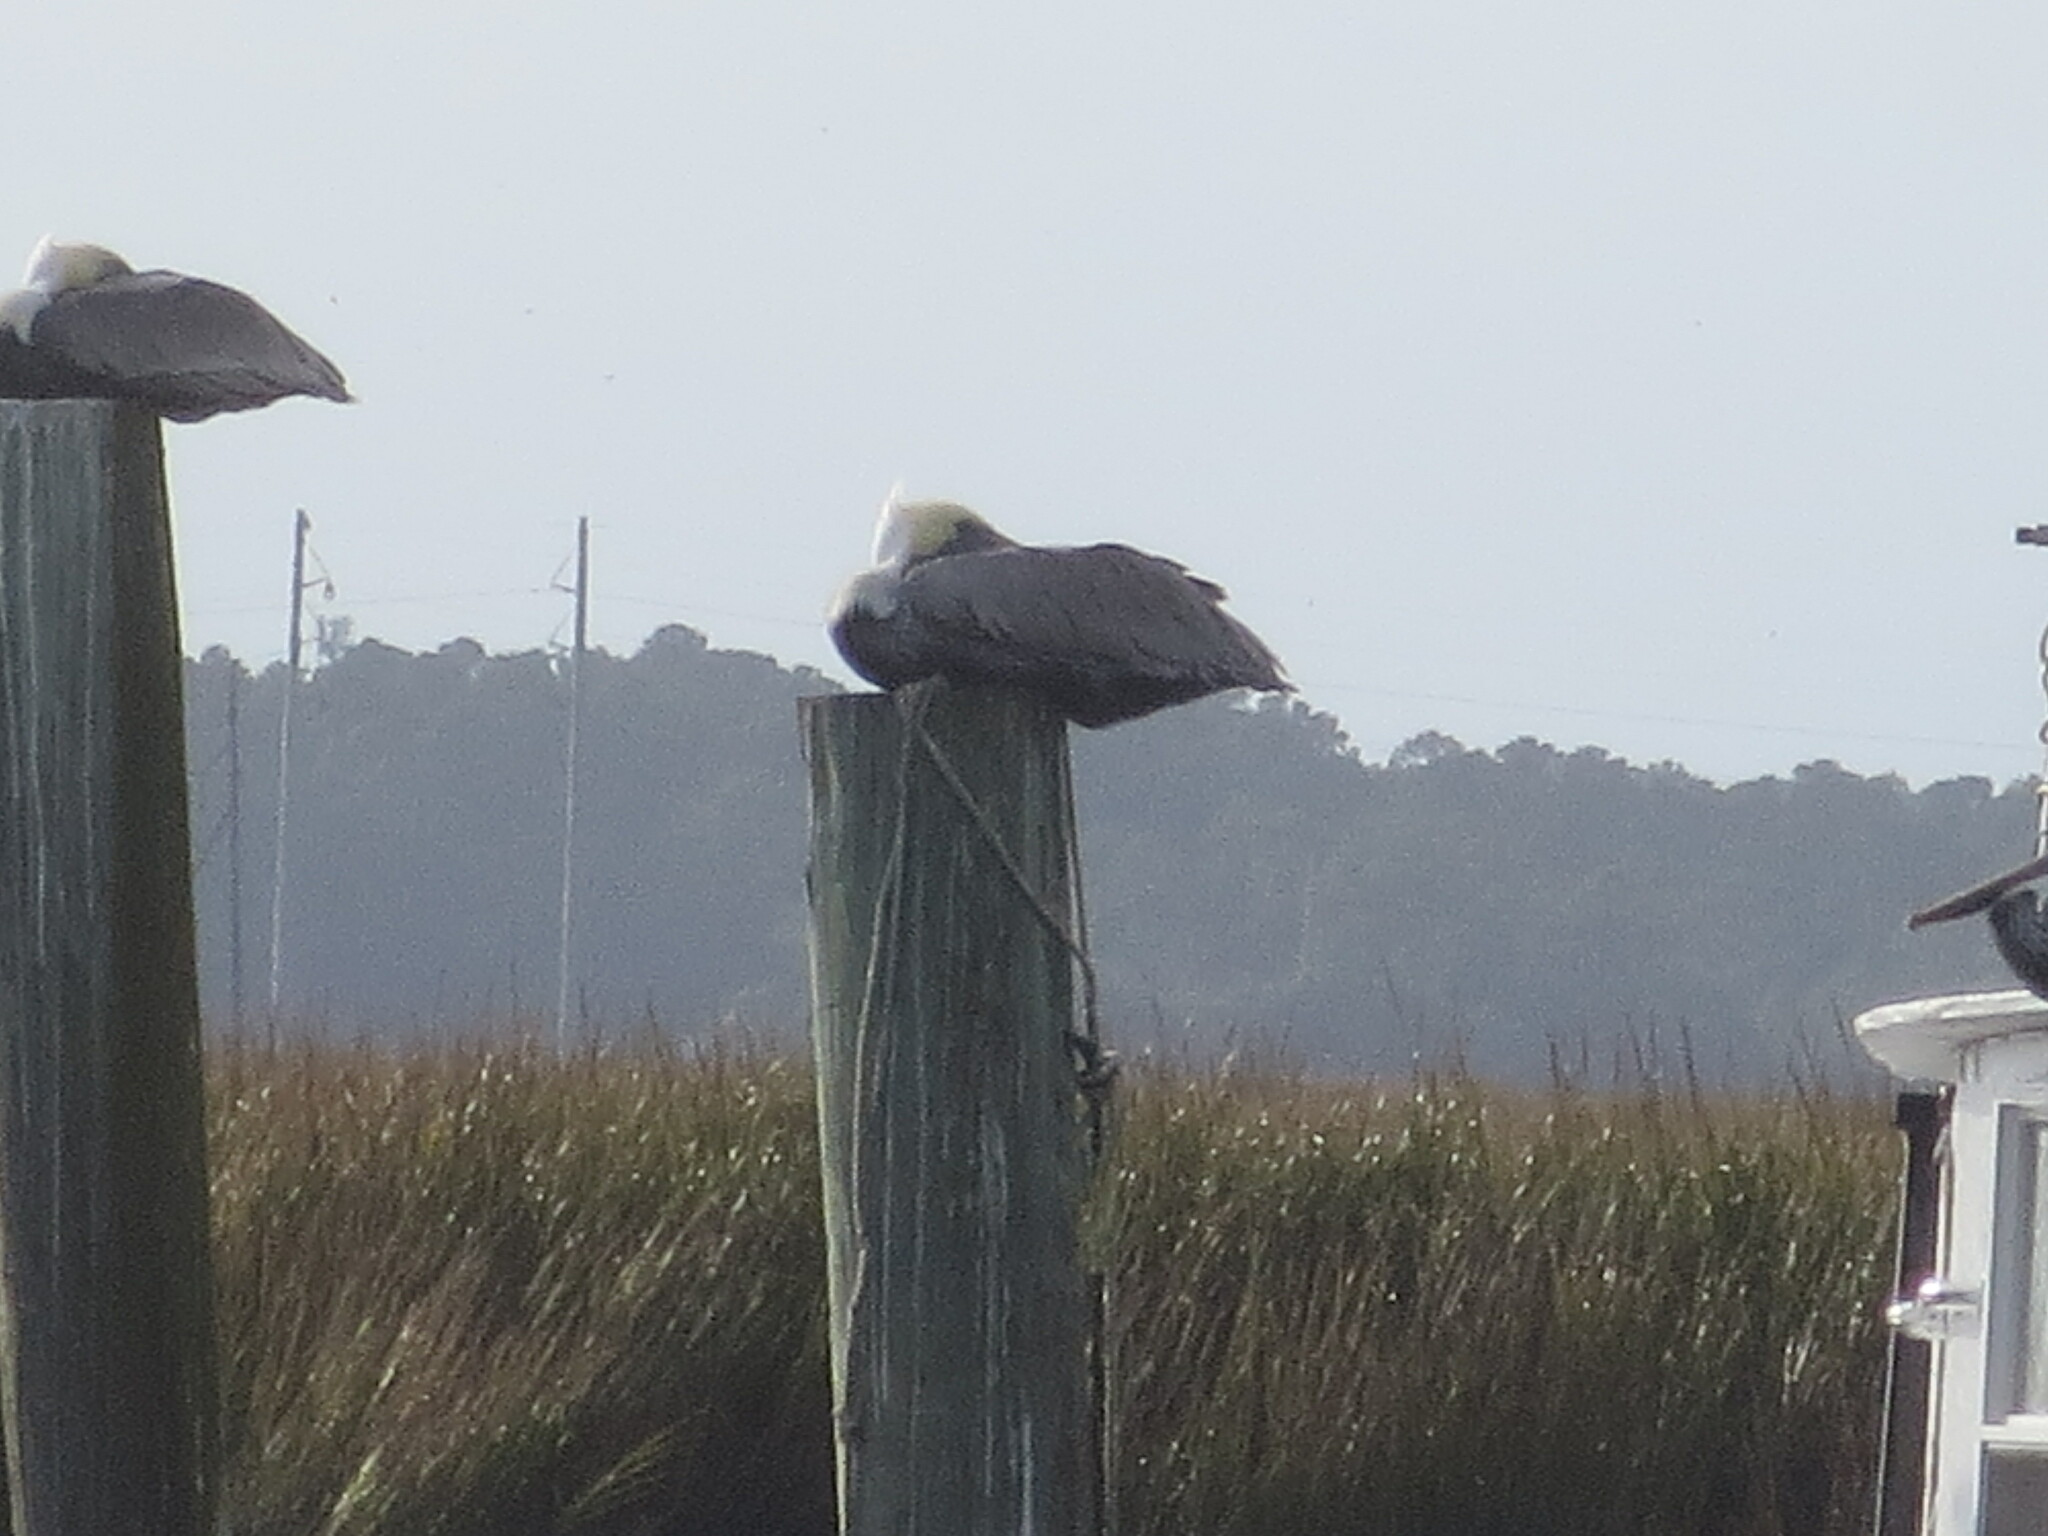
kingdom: Animalia
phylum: Chordata
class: Aves
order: Pelecaniformes
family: Pelecanidae
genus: Pelecanus
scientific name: Pelecanus occidentalis
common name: Brown pelican
